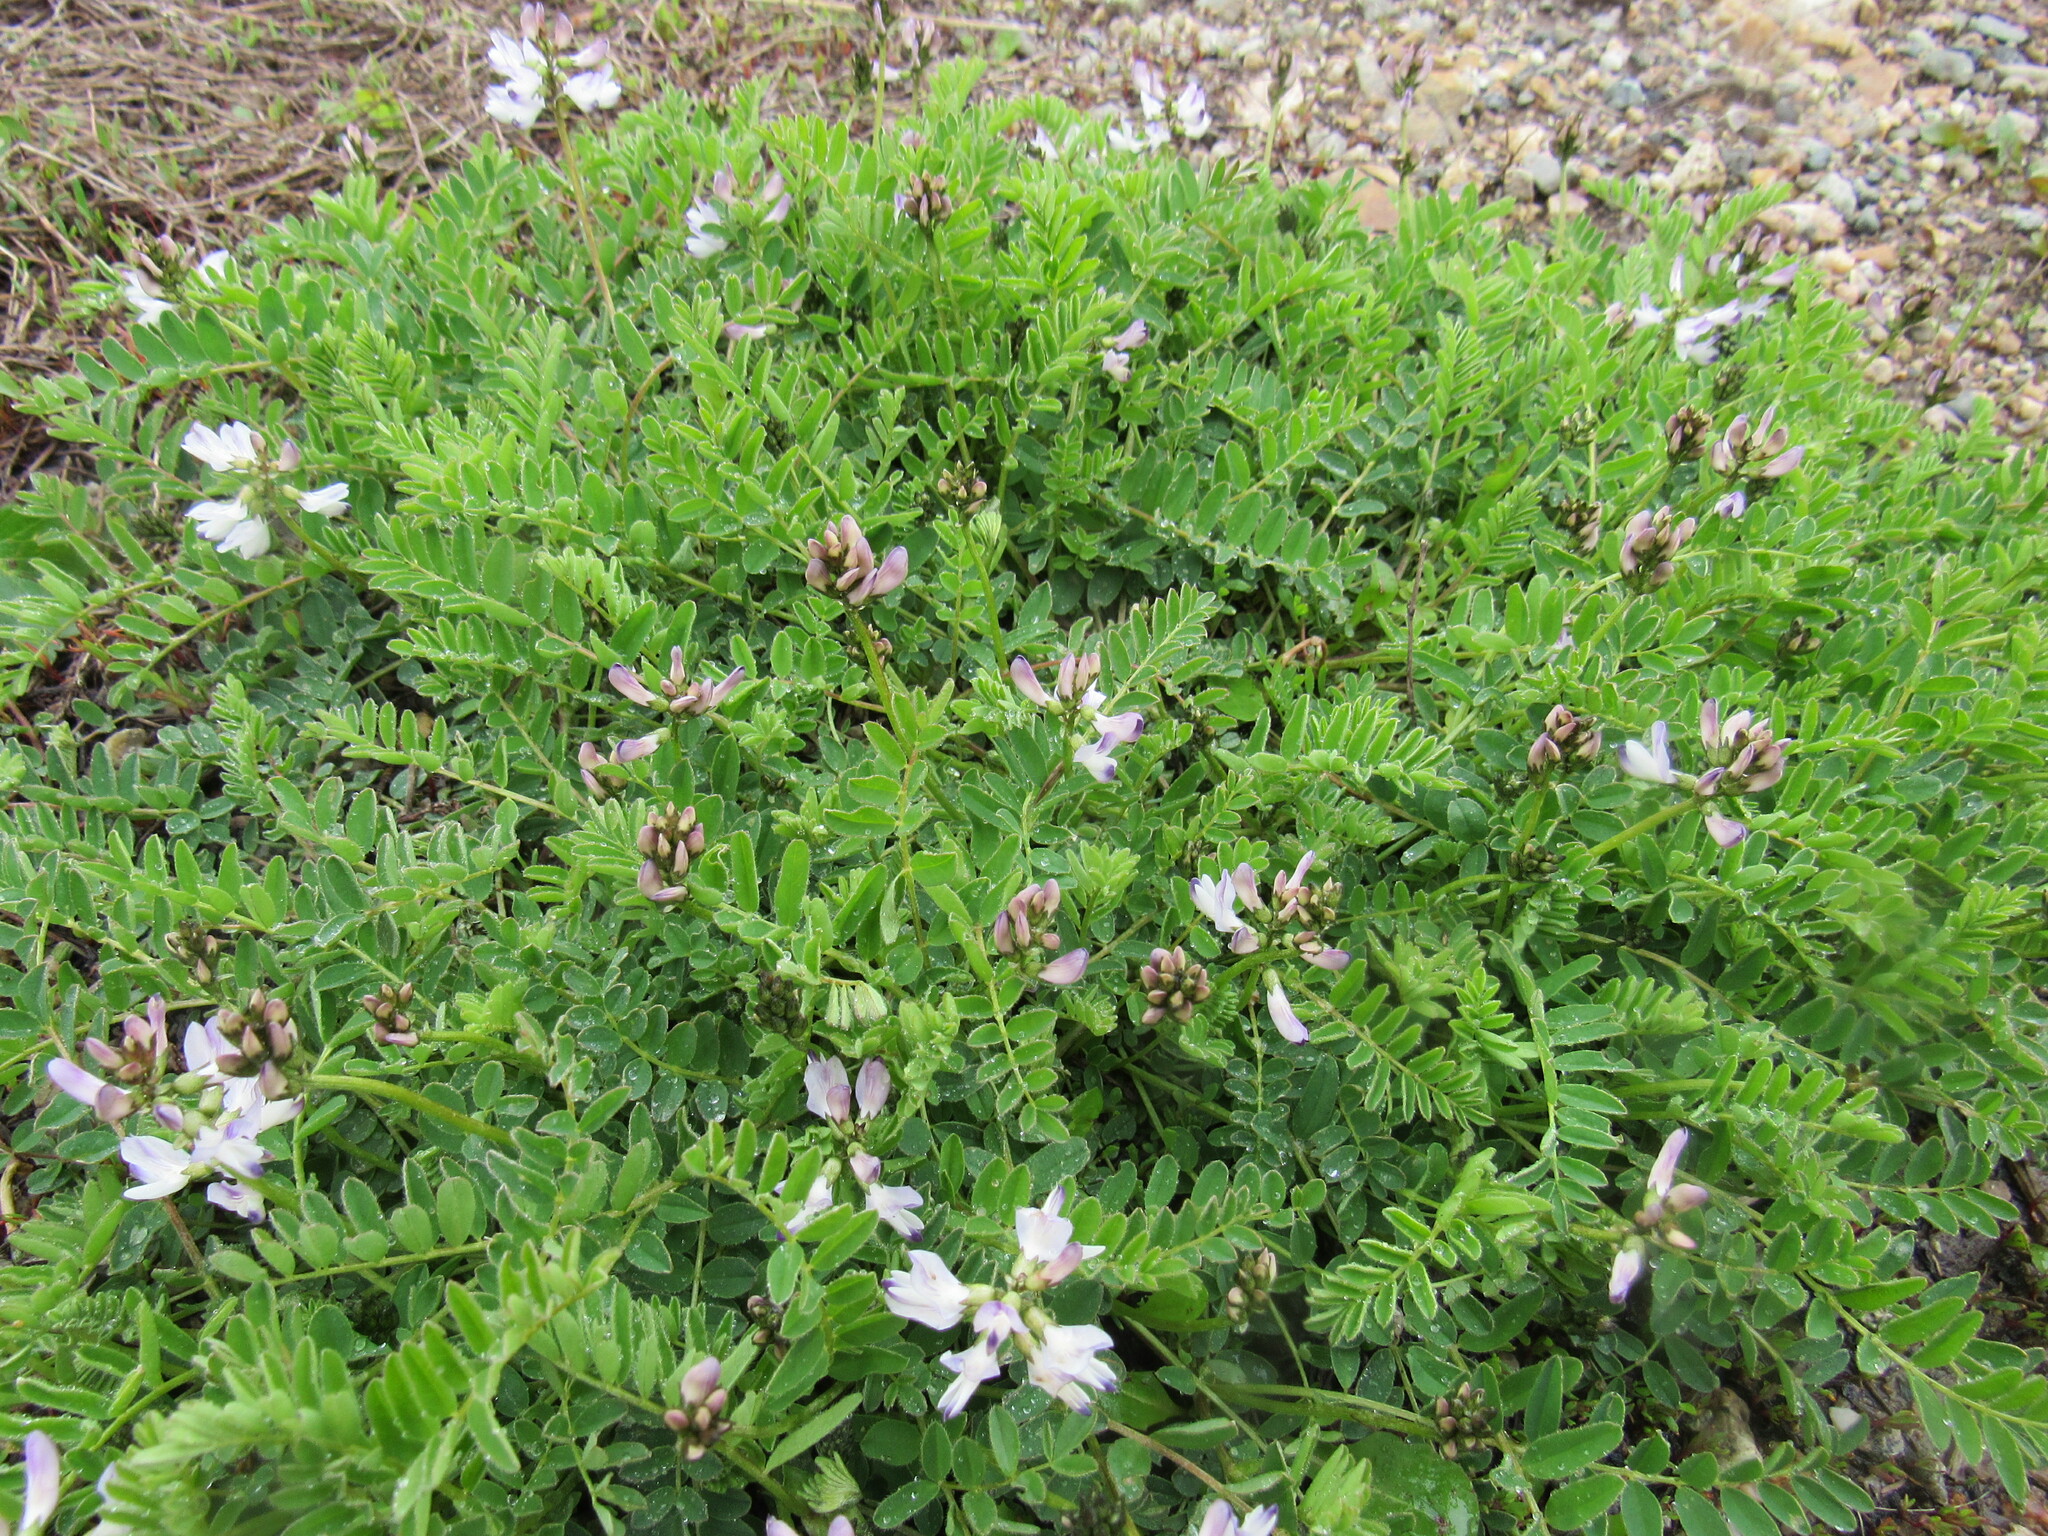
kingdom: Plantae
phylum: Tracheophyta
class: Magnoliopsida
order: Fabales
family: Fabaceae
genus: Astragalus
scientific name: Astragalus alpinus
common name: Alpine milk-vetch
